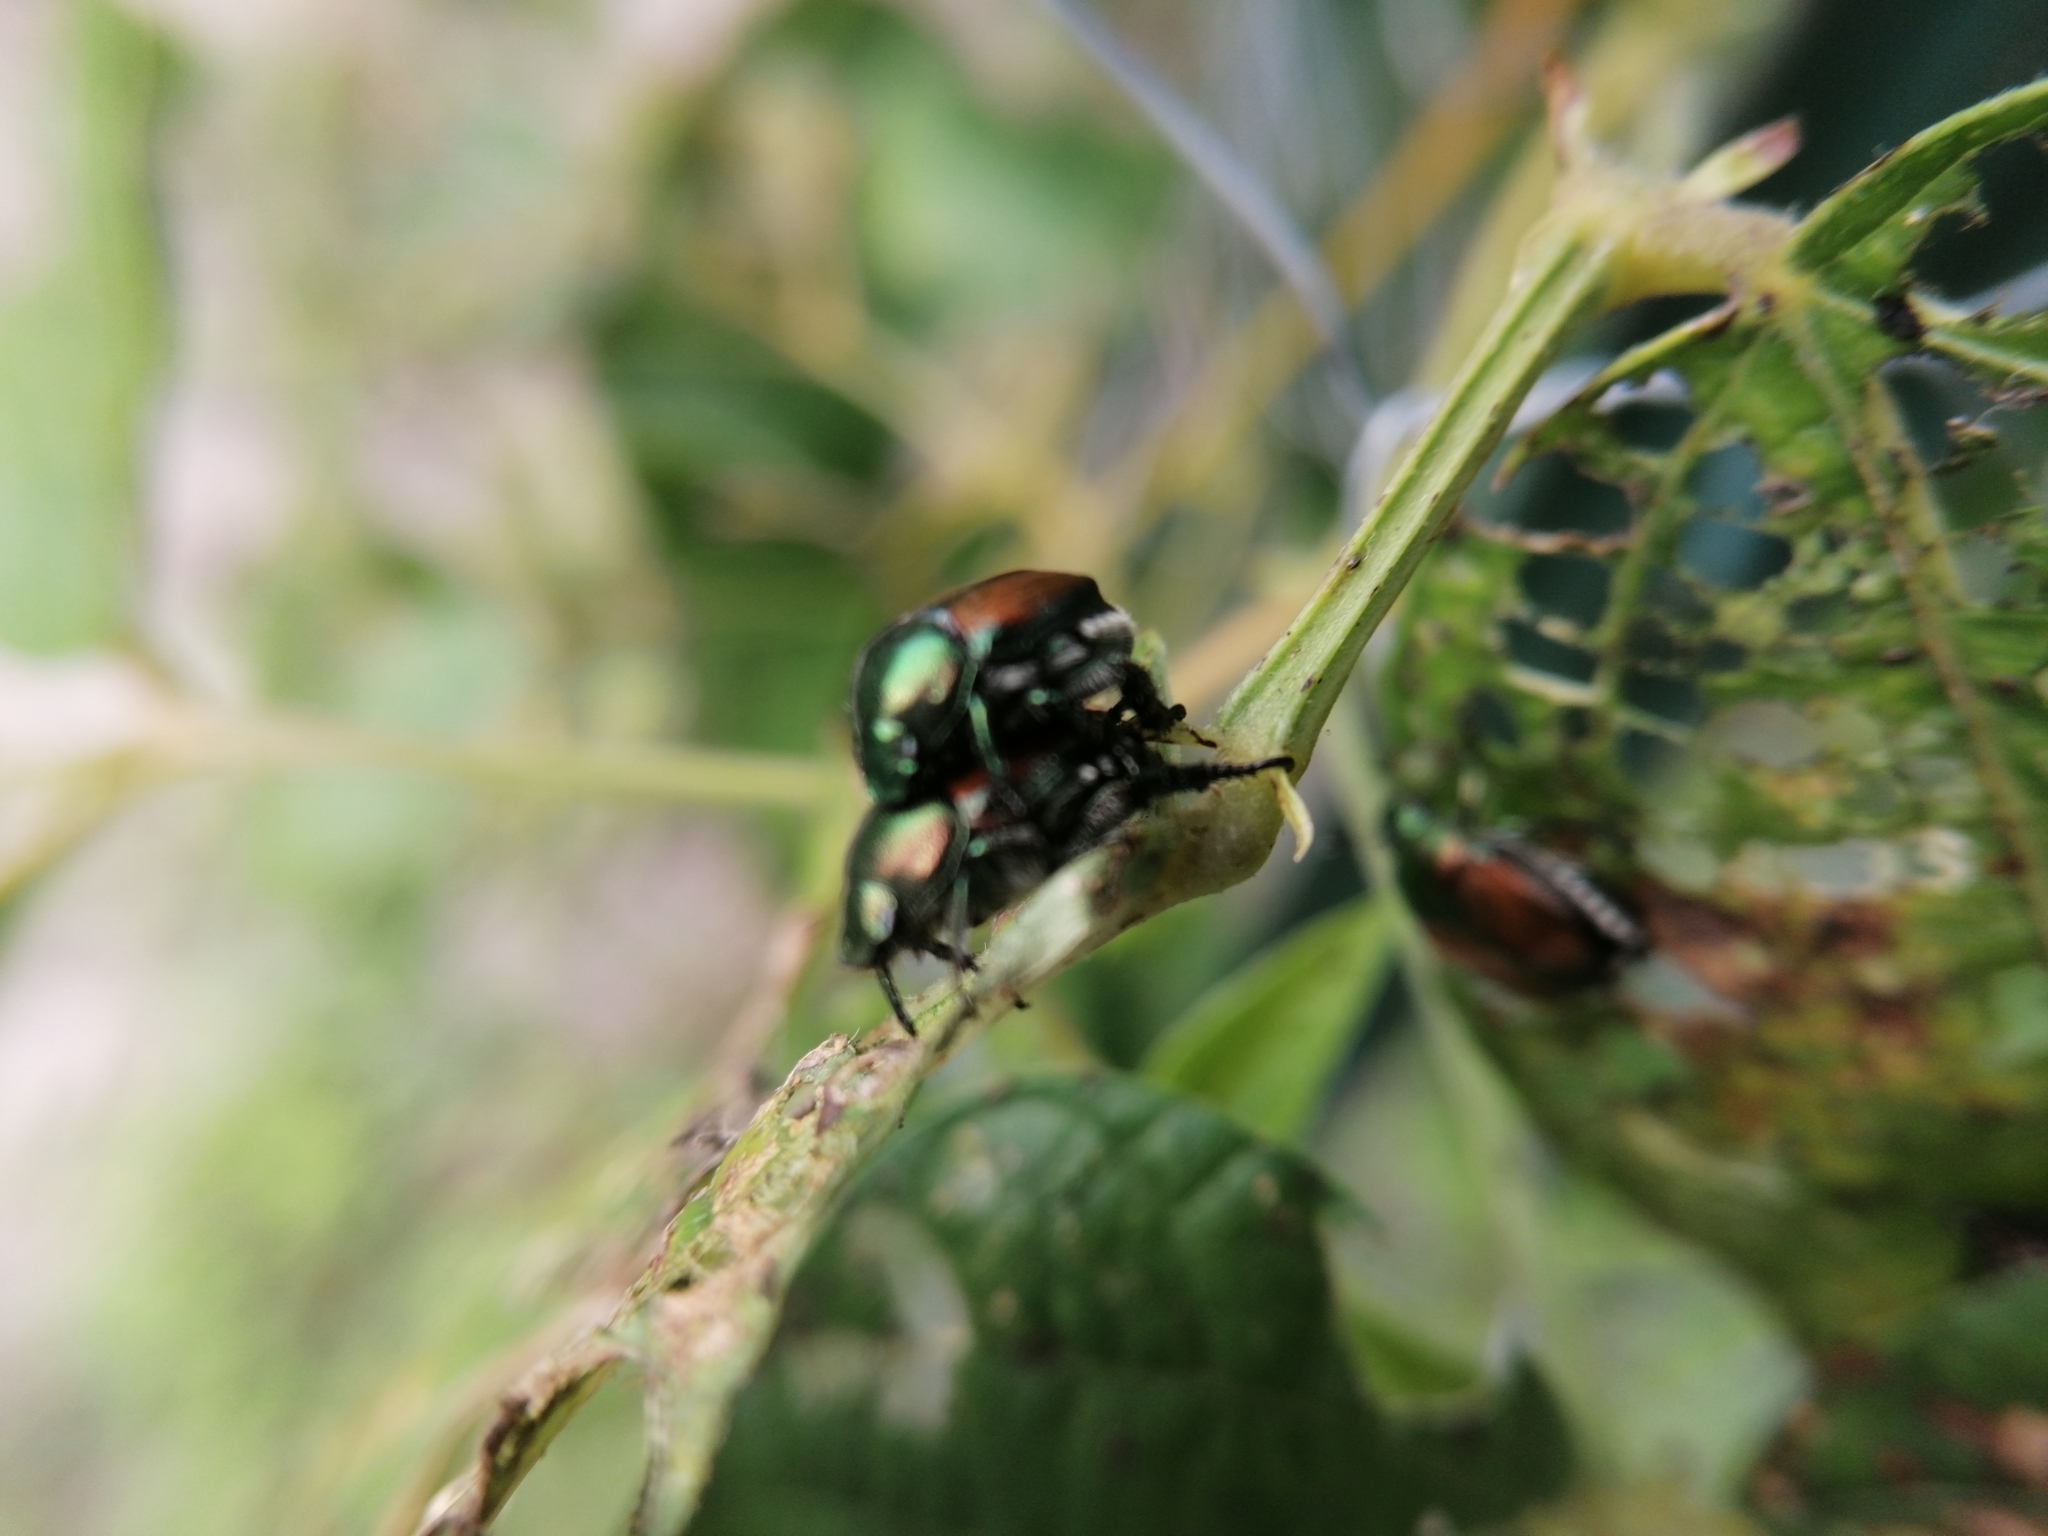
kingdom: Animalia
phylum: Arthropoda
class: Insecta
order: Coleoptera
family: Scarabaeidae
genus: Popillia
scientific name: Popillia japonica
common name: Japanese beetle
